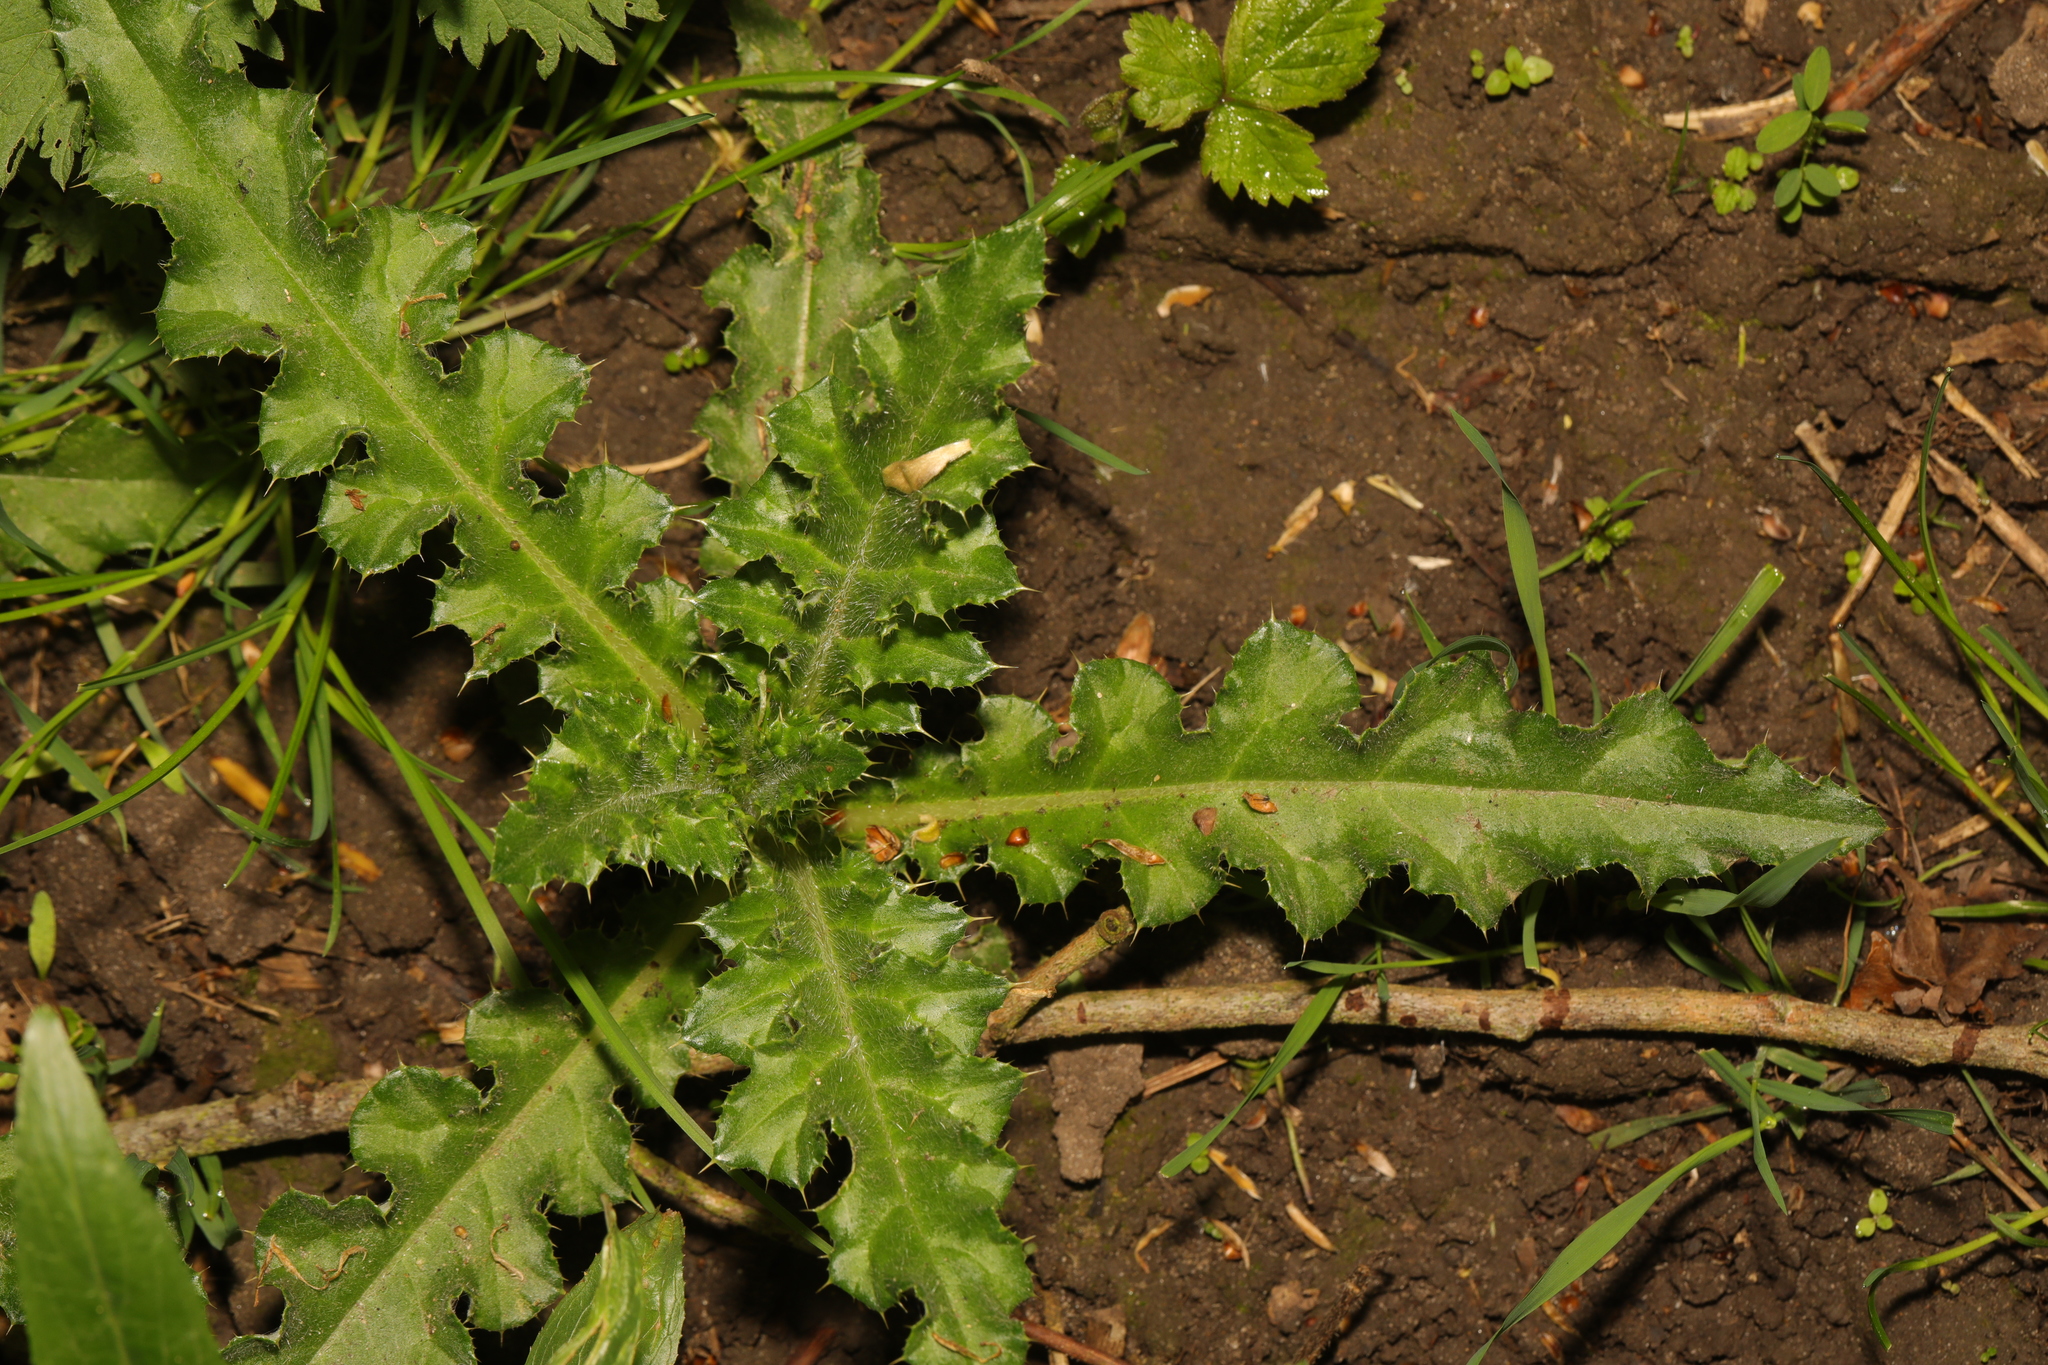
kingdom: Plantae
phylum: Tracheophyta
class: Magnoliopsida
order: Asterales
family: Asteraceae
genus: Cirsium
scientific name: Cirsium arvense
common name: Creeping thistle
